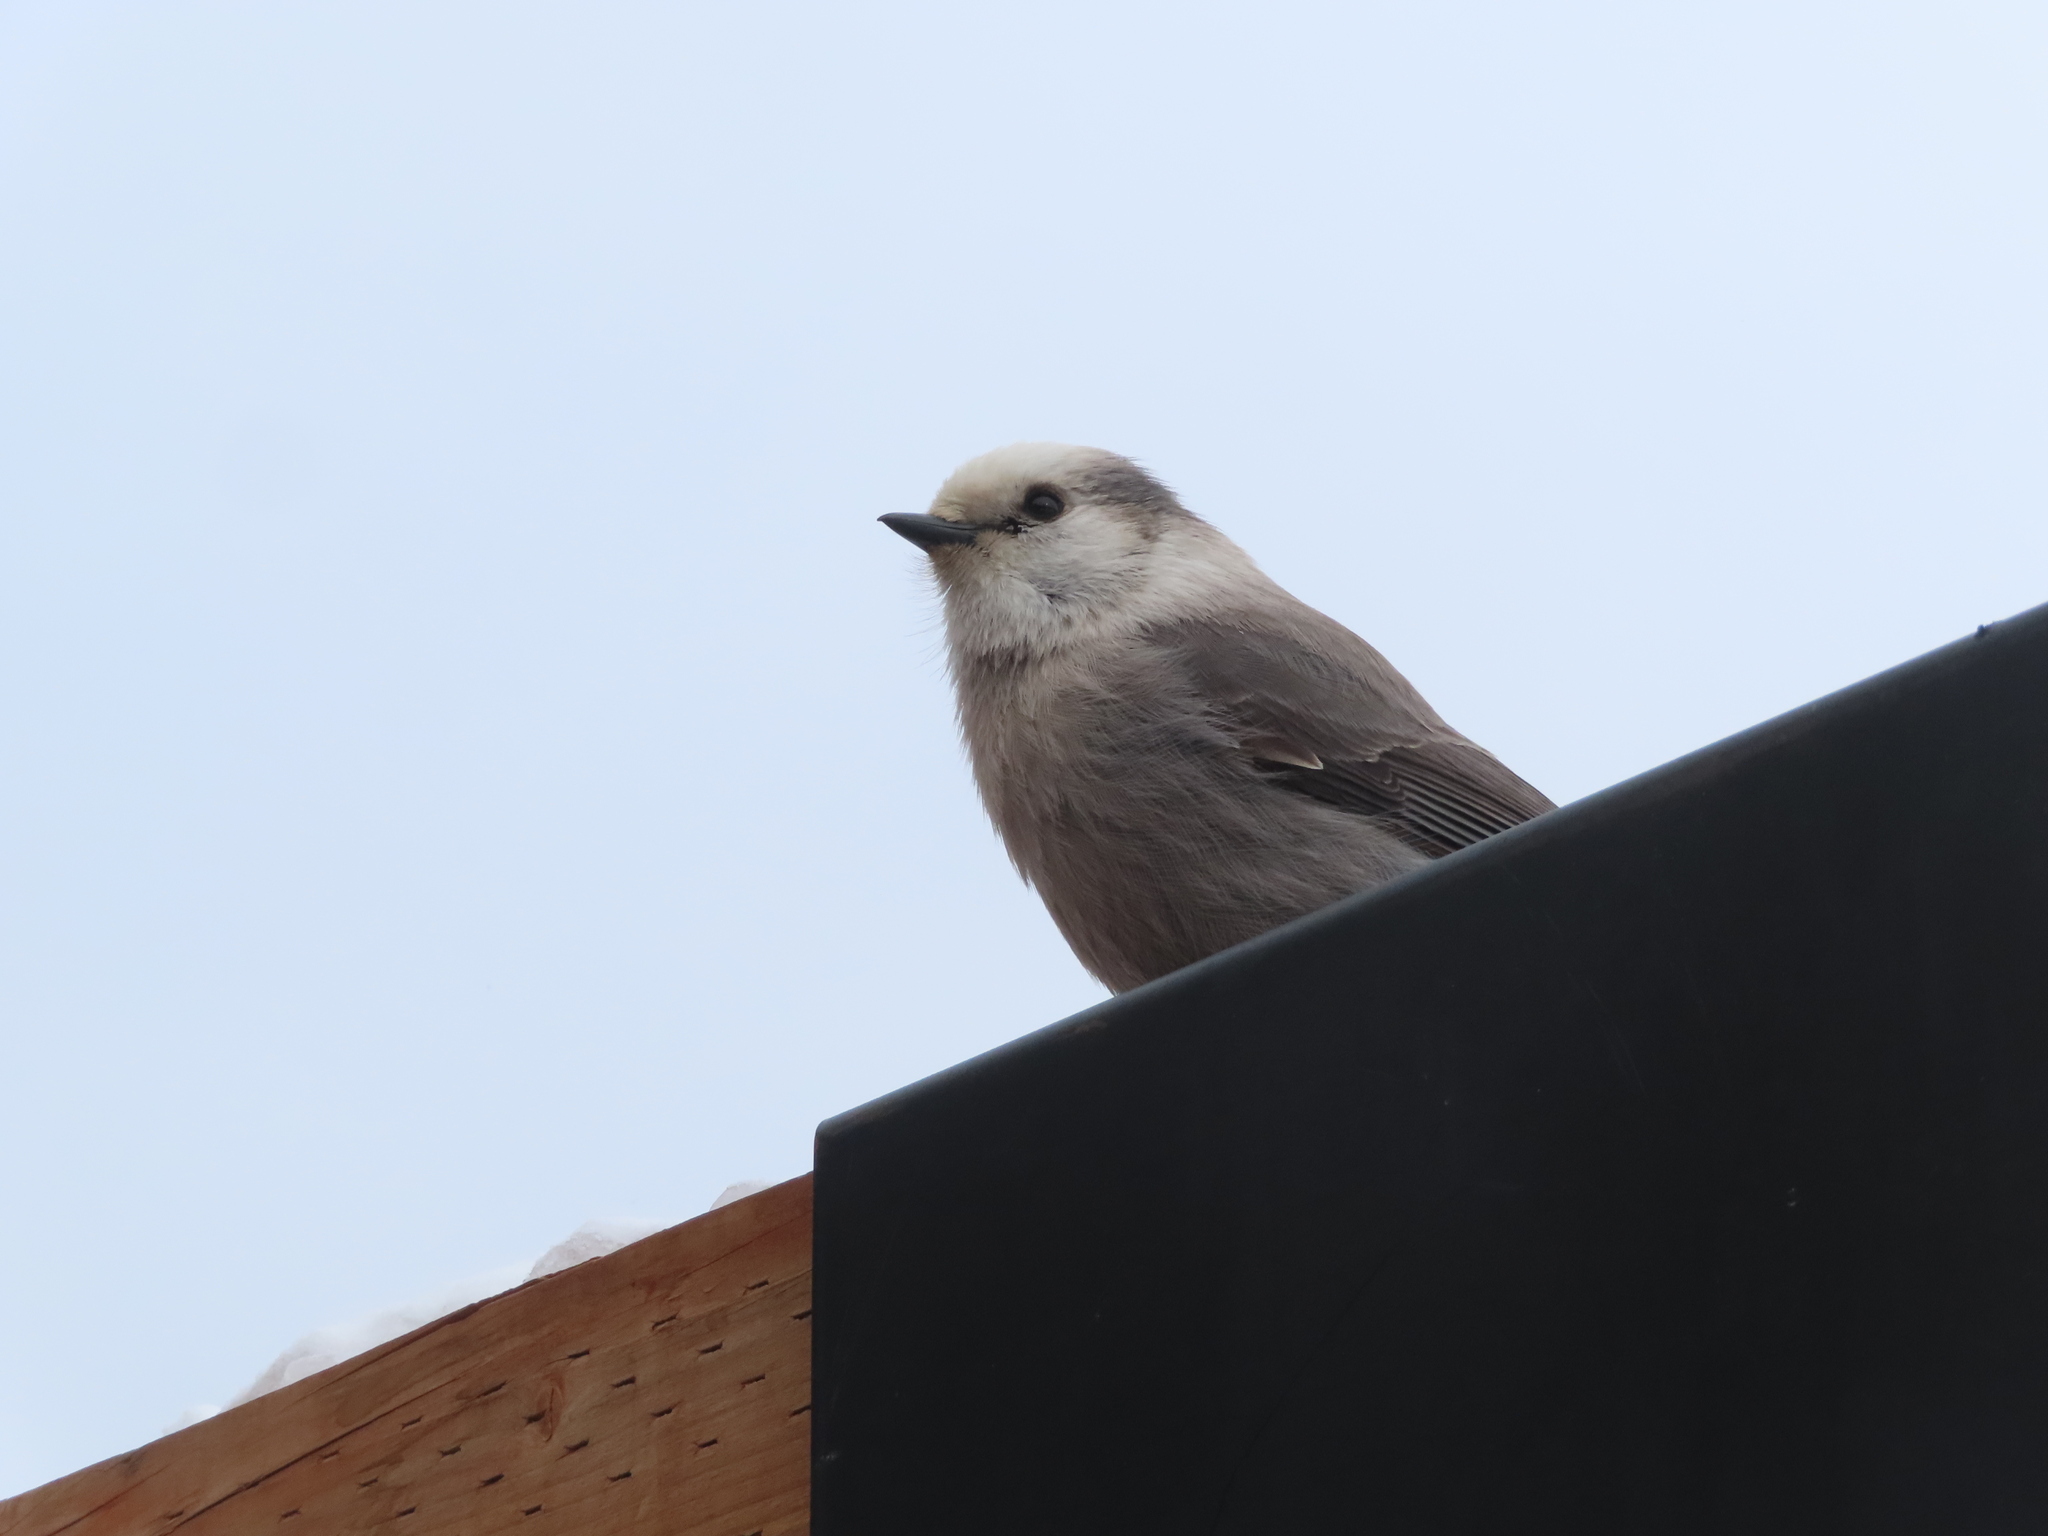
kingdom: Animalia
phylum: Chordata
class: Aves
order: Passeriformes
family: Corvidae
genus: Perisoreus
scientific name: Perisoreus canadensis
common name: Gray jay
